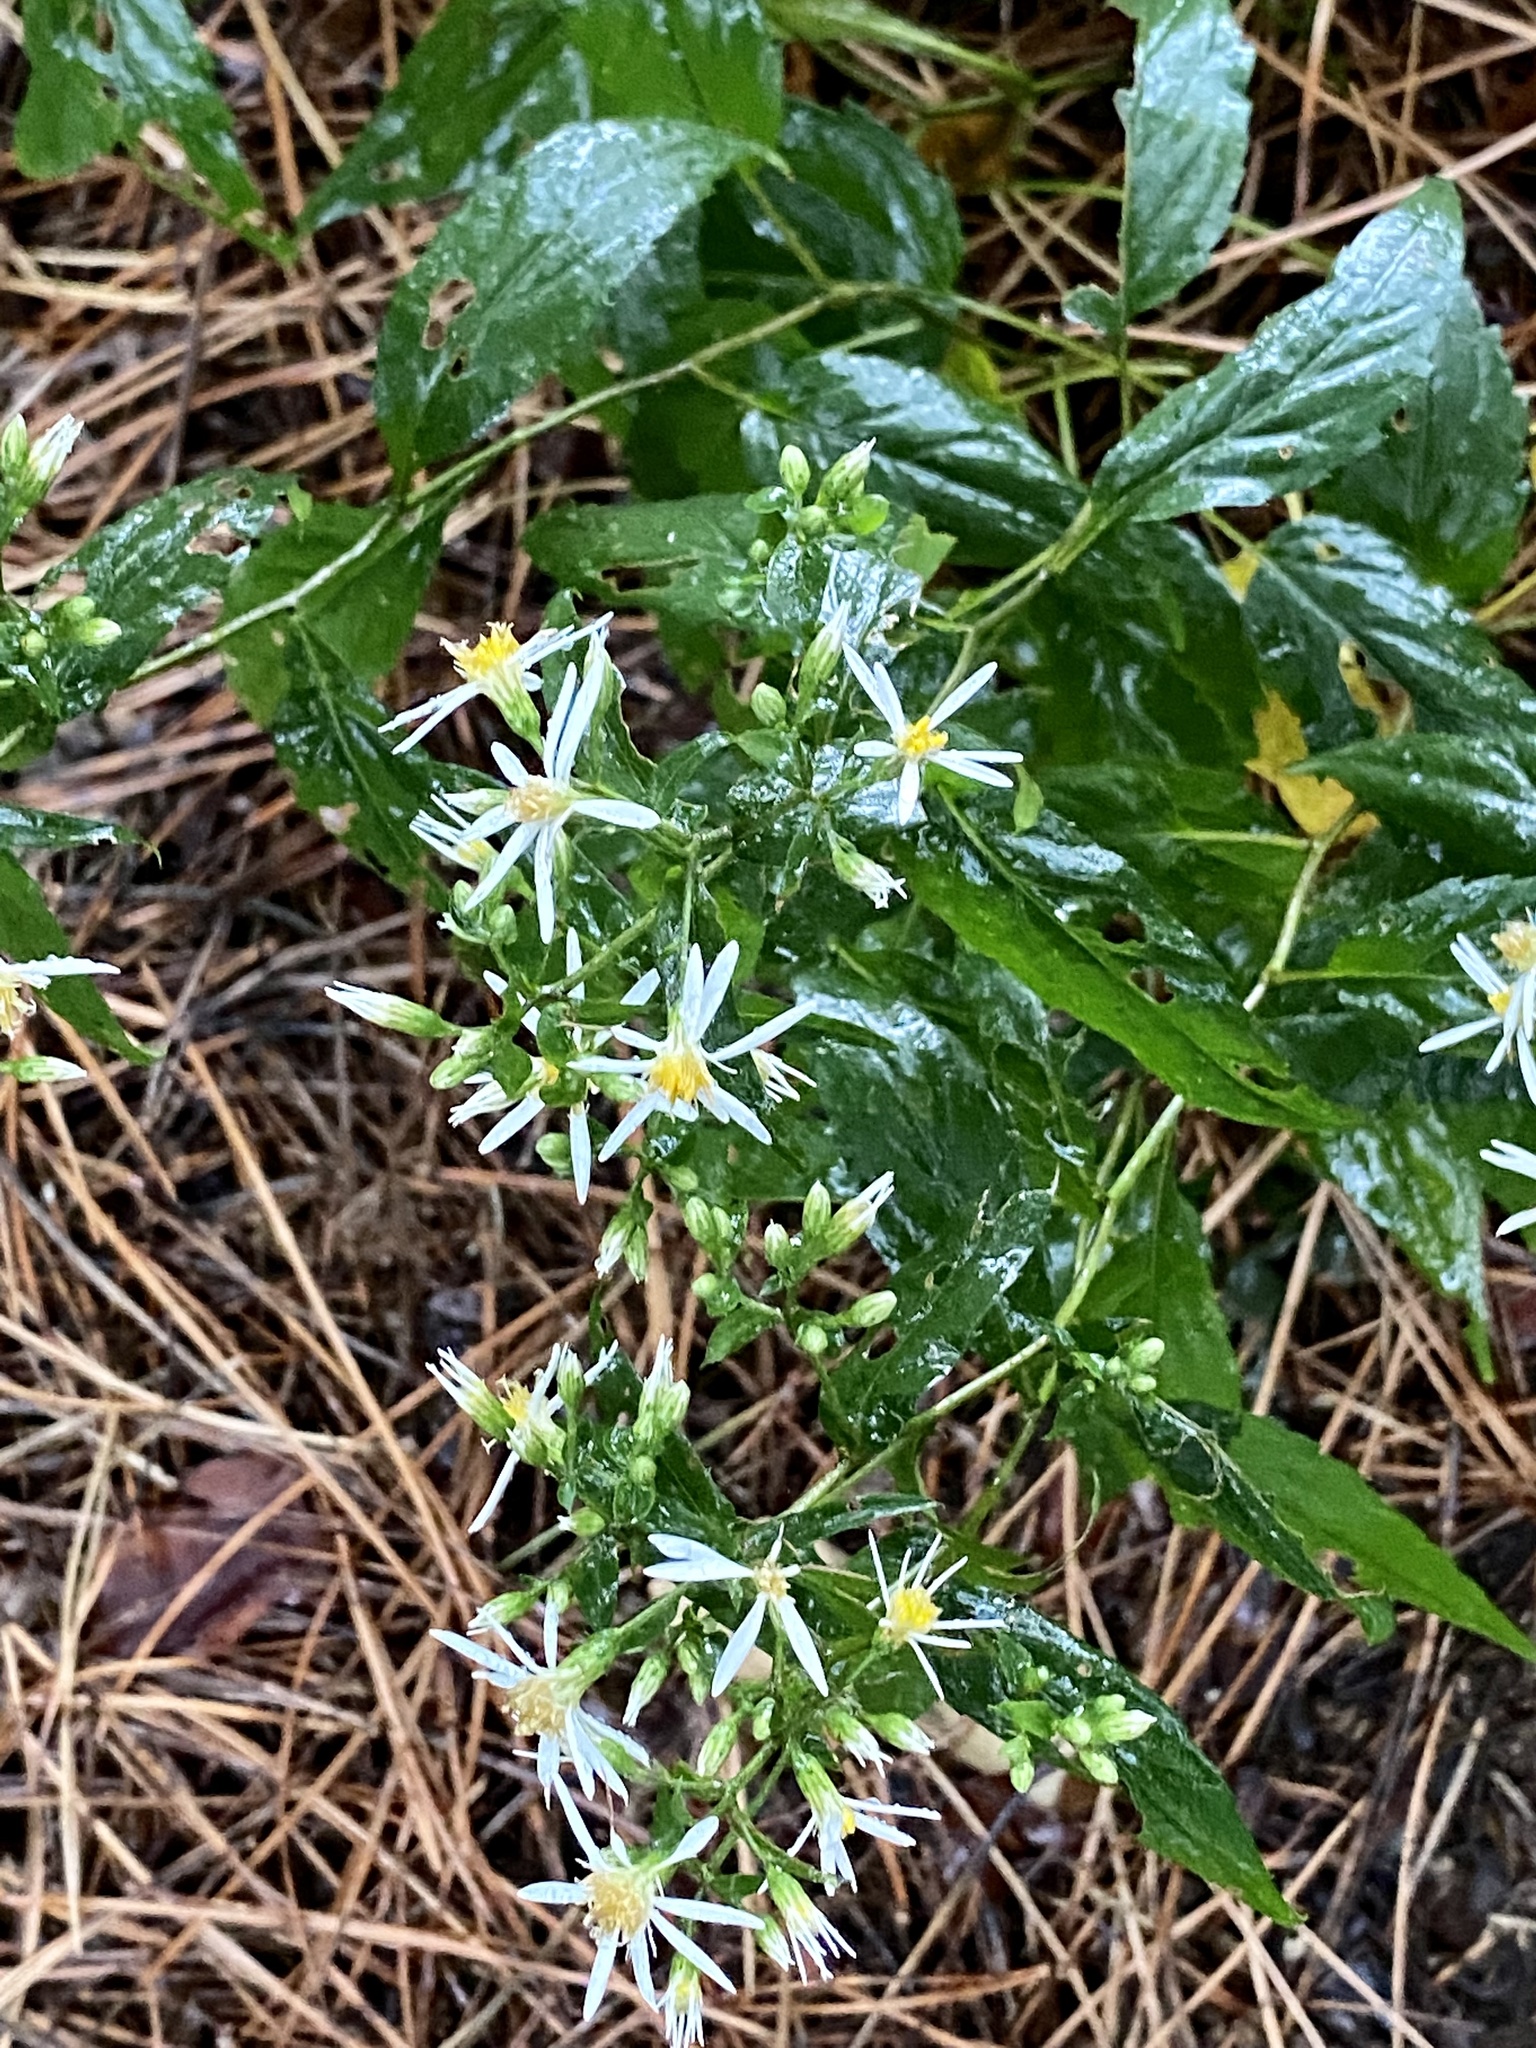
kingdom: Plantae
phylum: Tracheophyta
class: Magnoliopsida
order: Asterales
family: Asteraceae
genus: Eurybia
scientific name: Eurybia divaricata
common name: White wood aster
